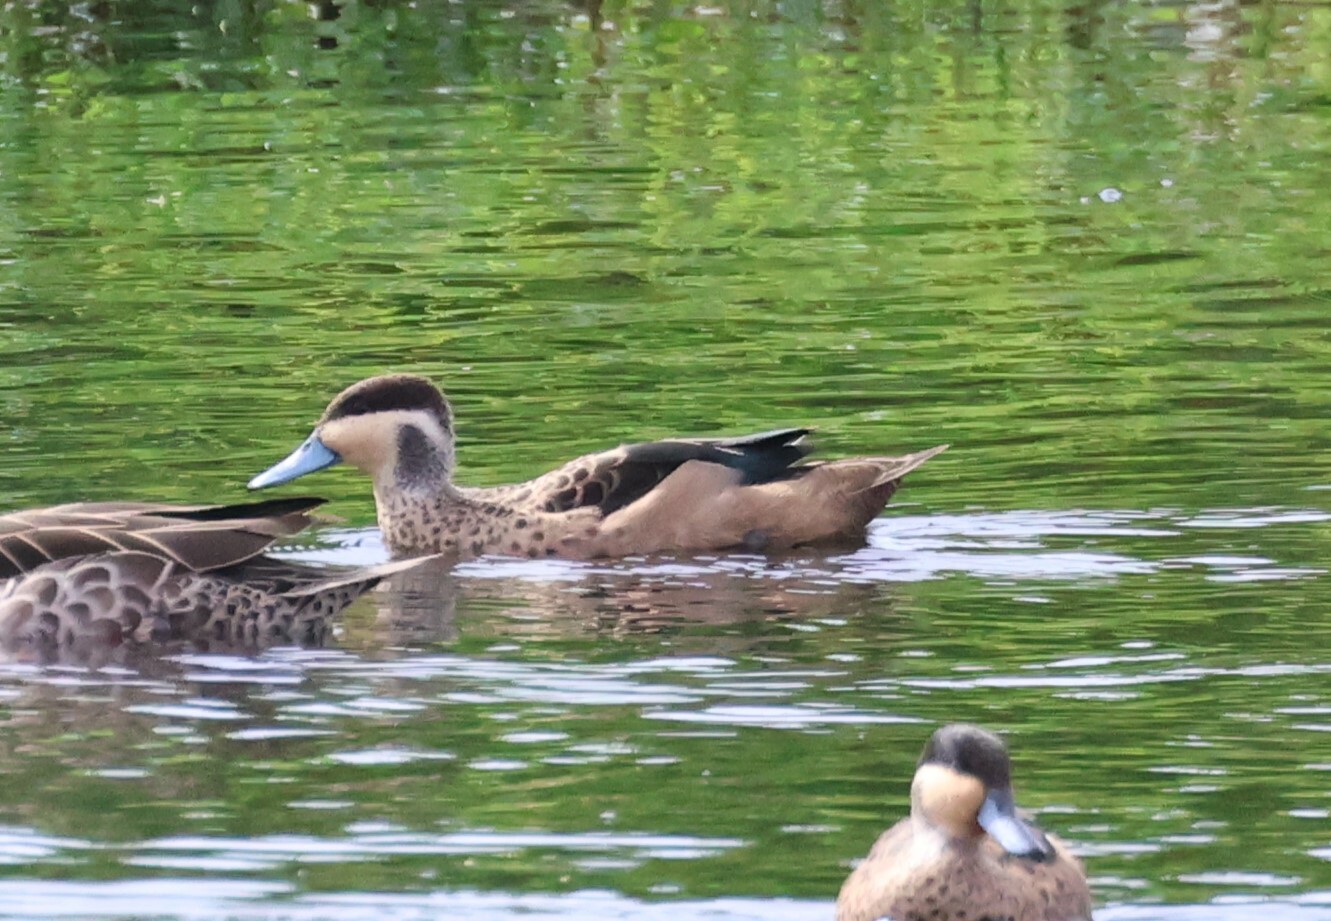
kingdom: Animalia
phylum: Chordata
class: Aves
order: Anseriformes
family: Anatidae
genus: Spatula
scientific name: Spatula hottentota
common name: Blue-billed teal
